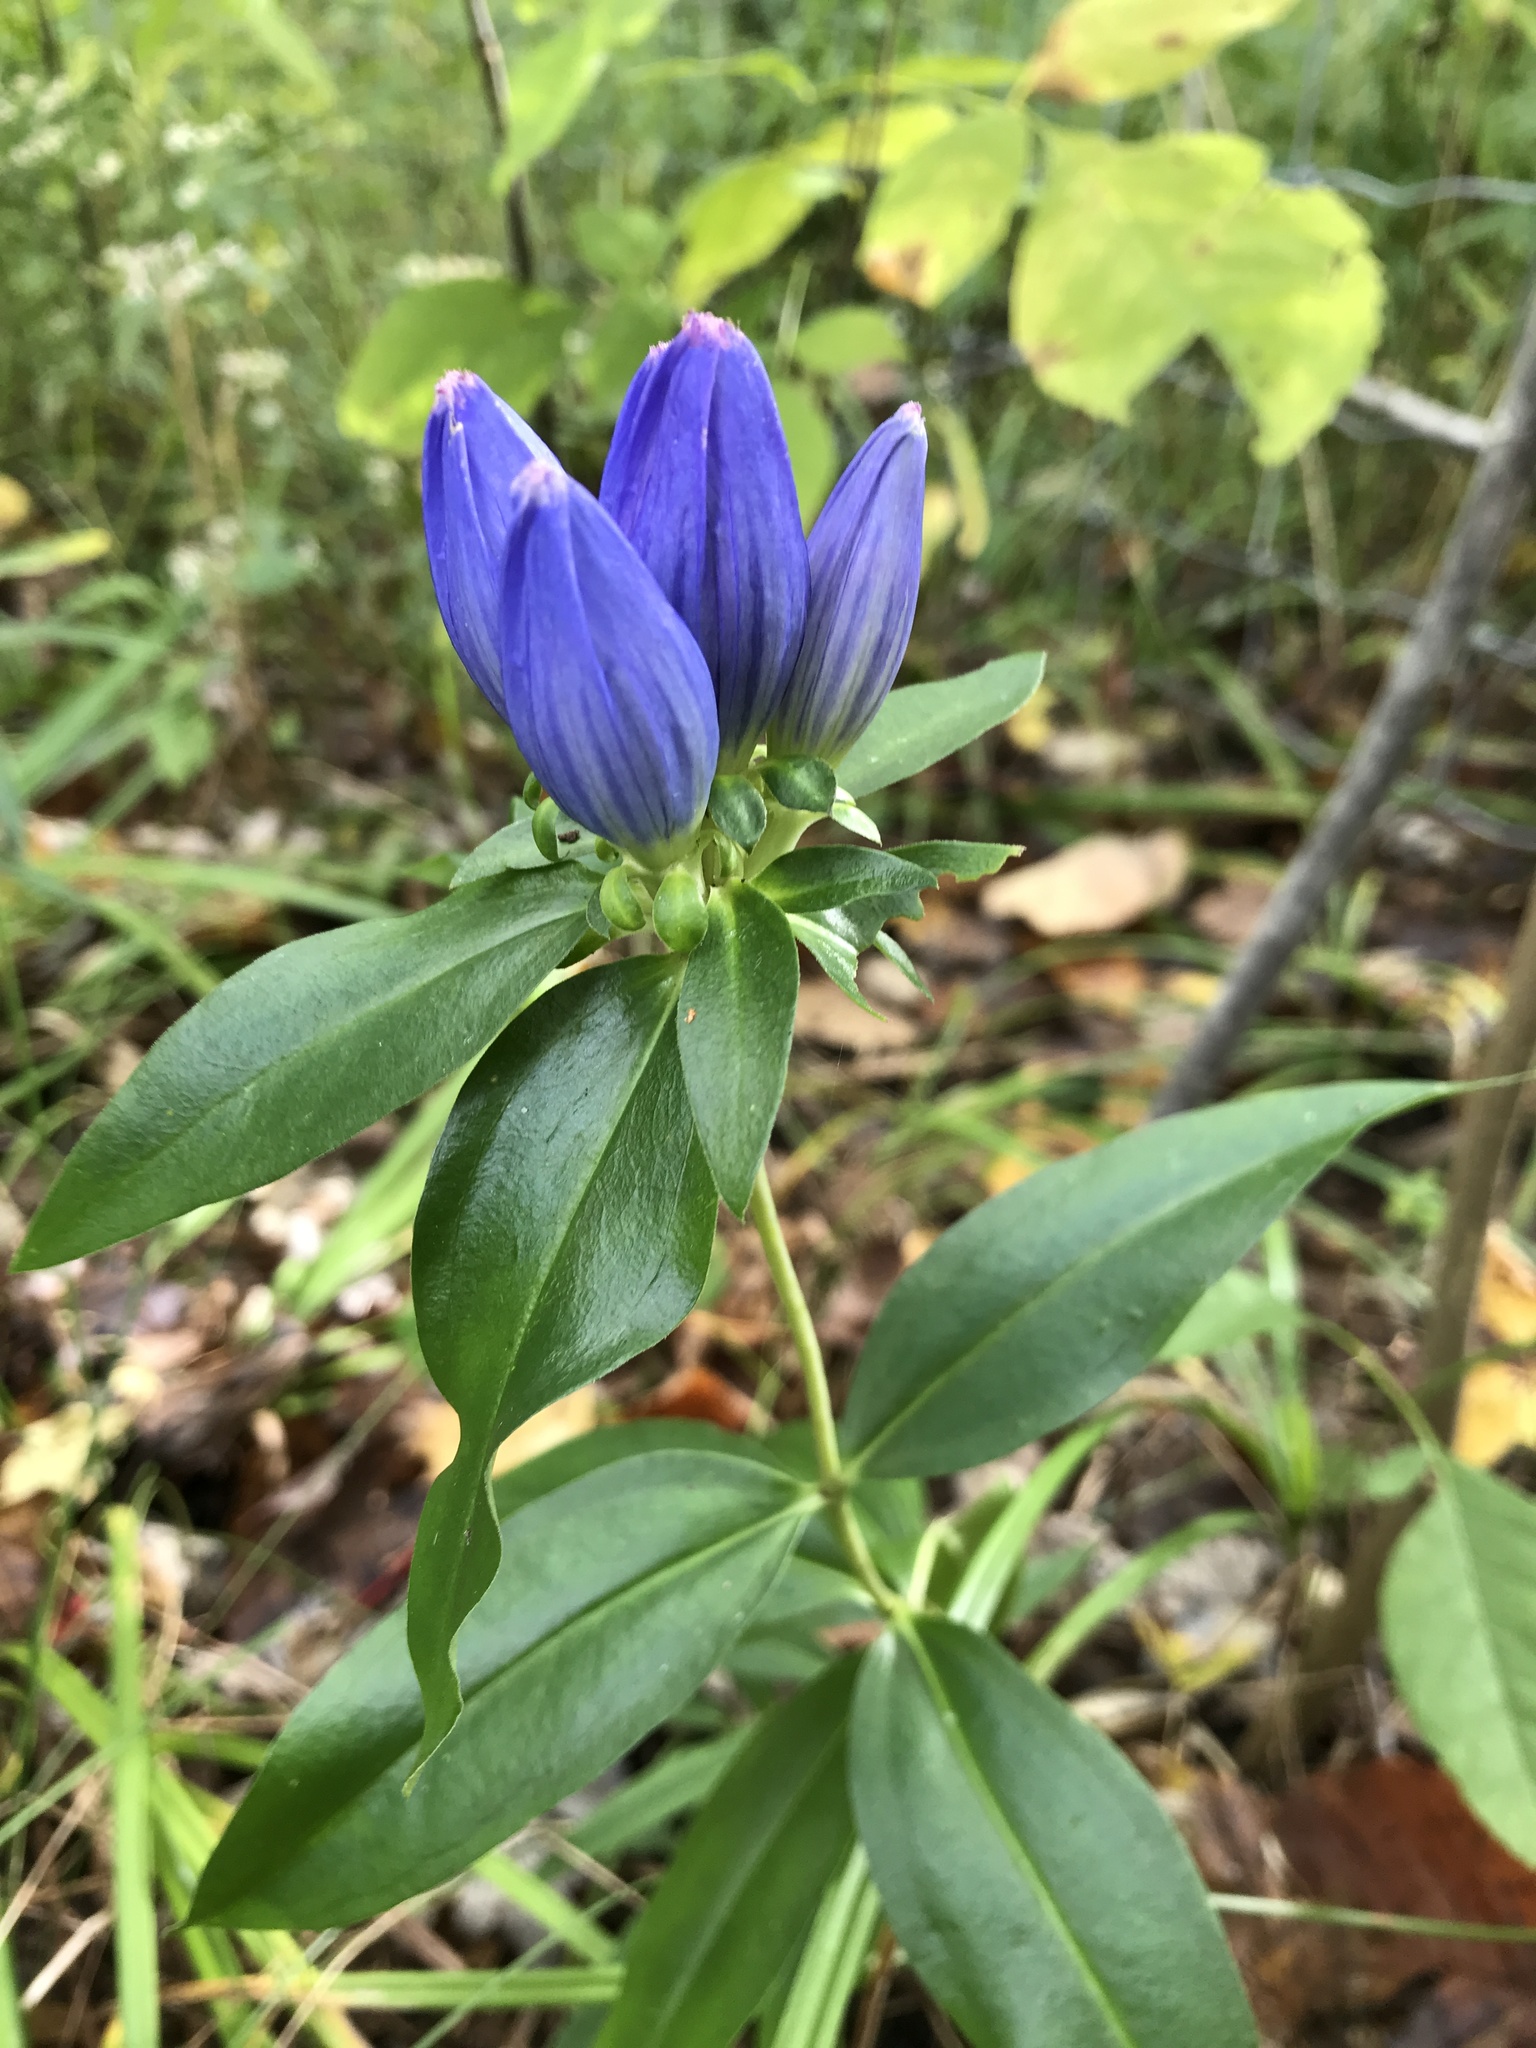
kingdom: Plantae
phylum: Tracheophyta
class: Magnoliopsida
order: Gentianales
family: Gentianaceae
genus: Gentiana
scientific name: Gentiana andrewsii
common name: Bottle gentian
